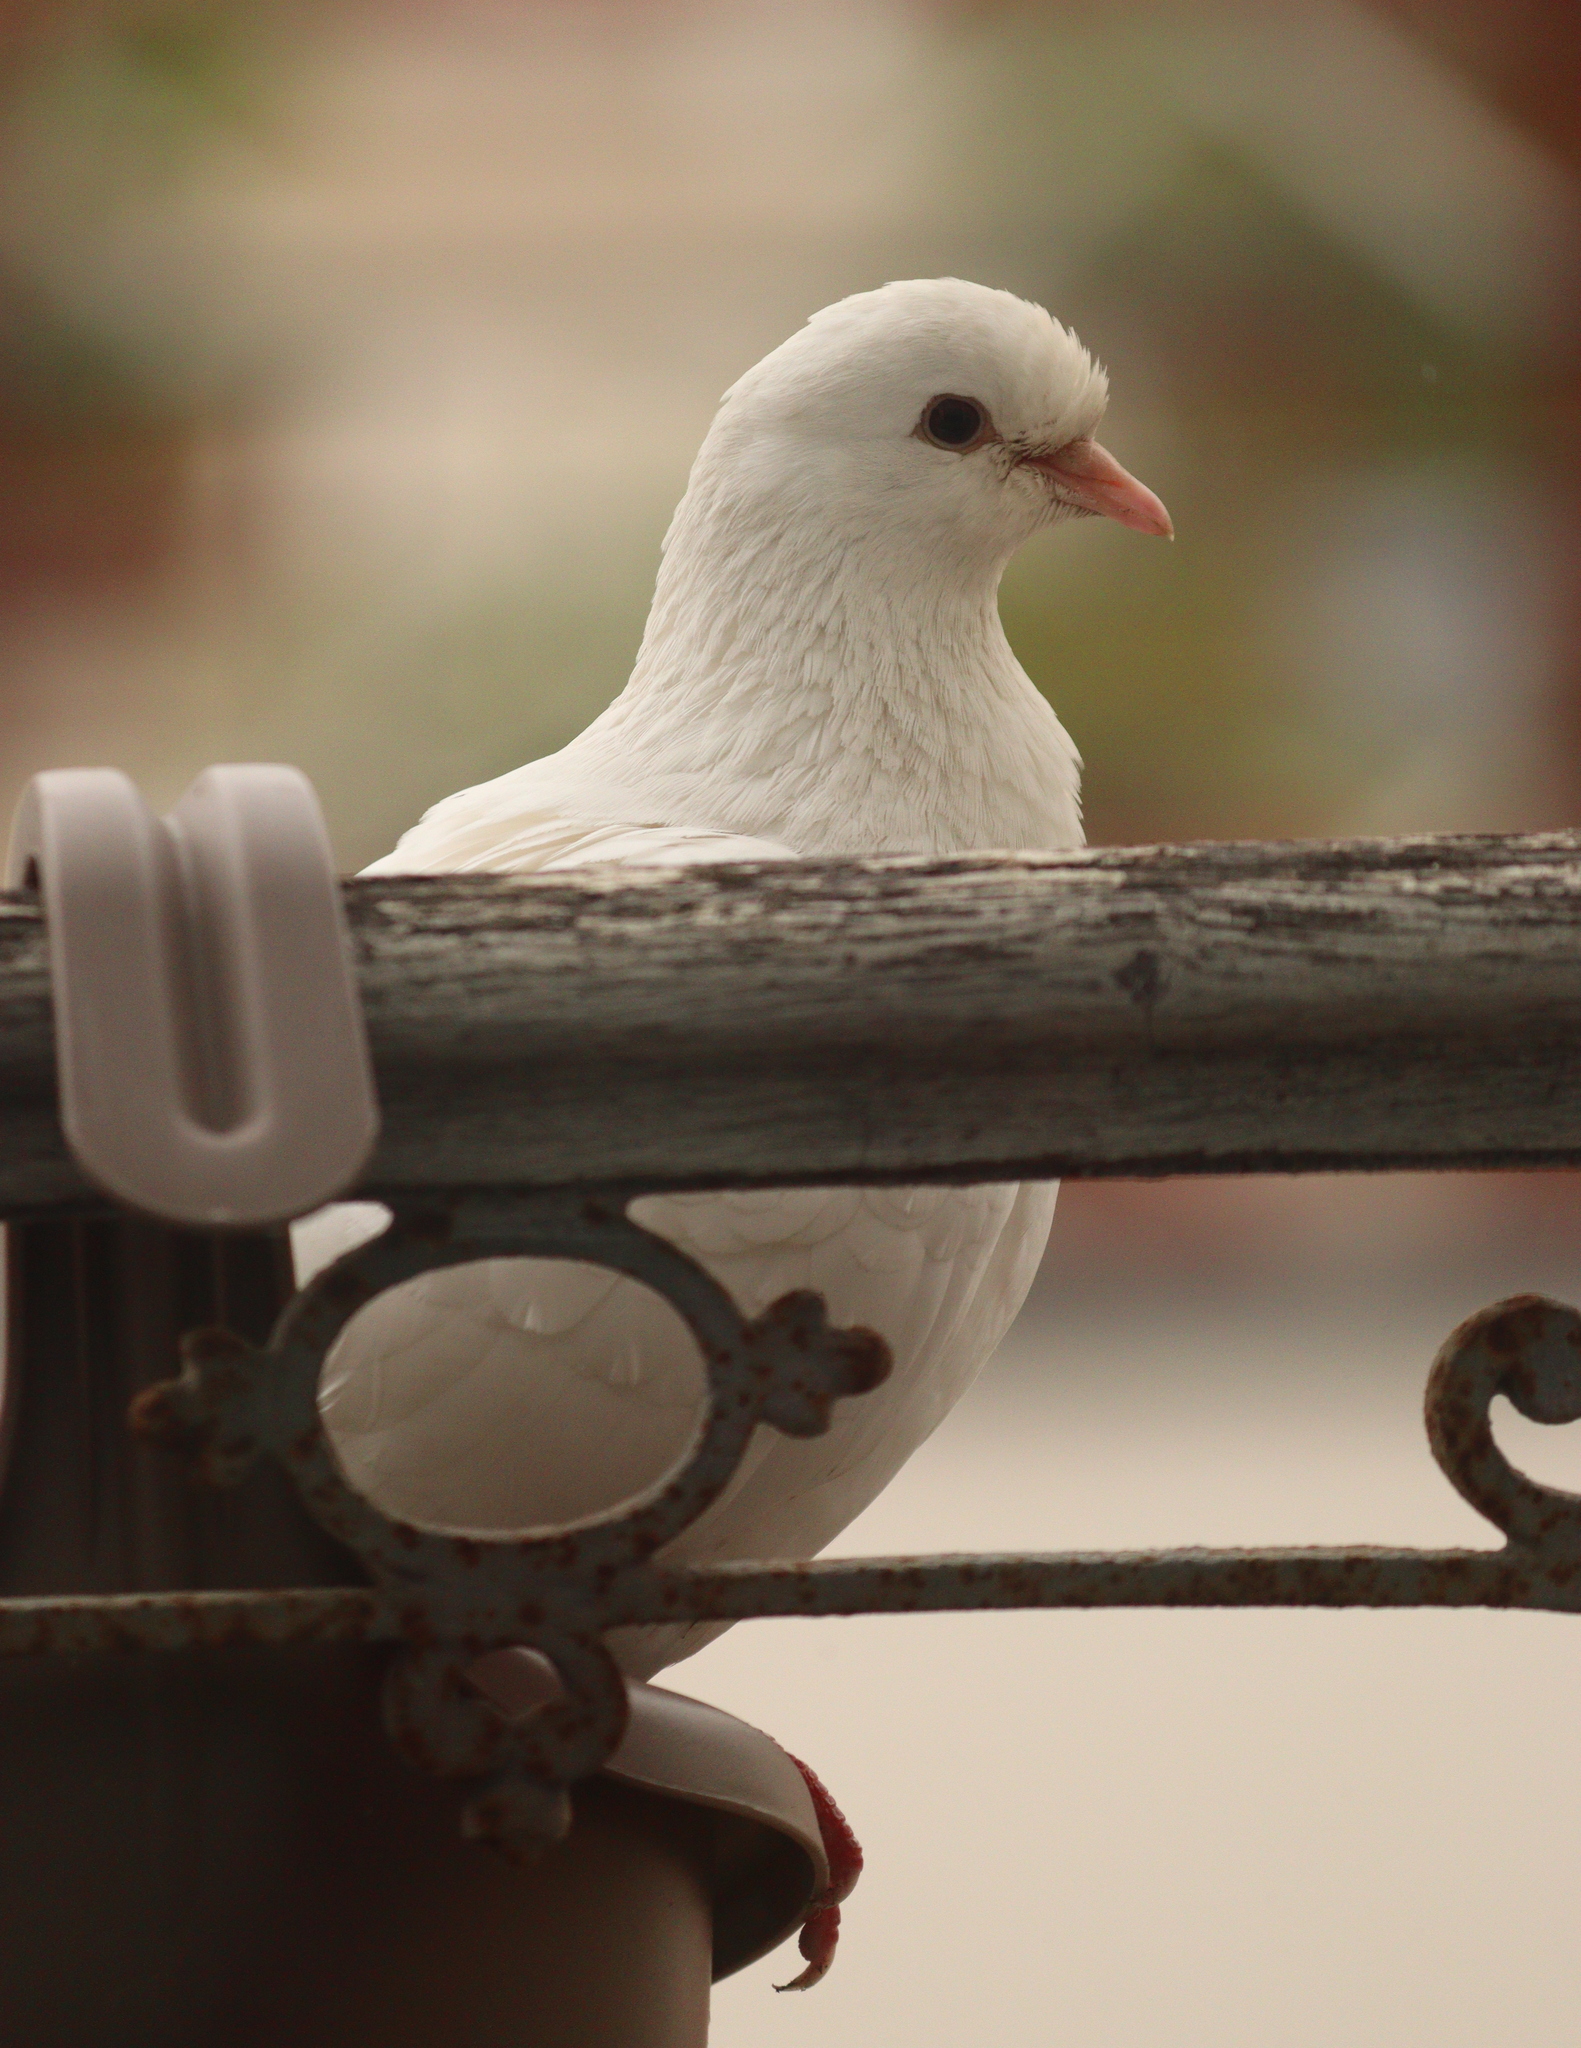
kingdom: Animalia
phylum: Chordata
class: Aves
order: Columbiformes
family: Columbidae
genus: Columba
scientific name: Columba livia
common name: Rock pigeon
